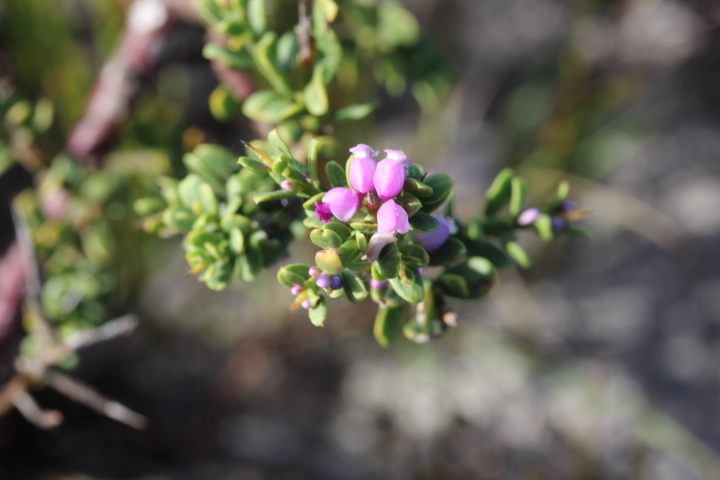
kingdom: Plantae
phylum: Tracheophyta
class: Magnoliopsida
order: Fabales
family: Polygalaceae
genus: Muraltia
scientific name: Muraltia spinosa
